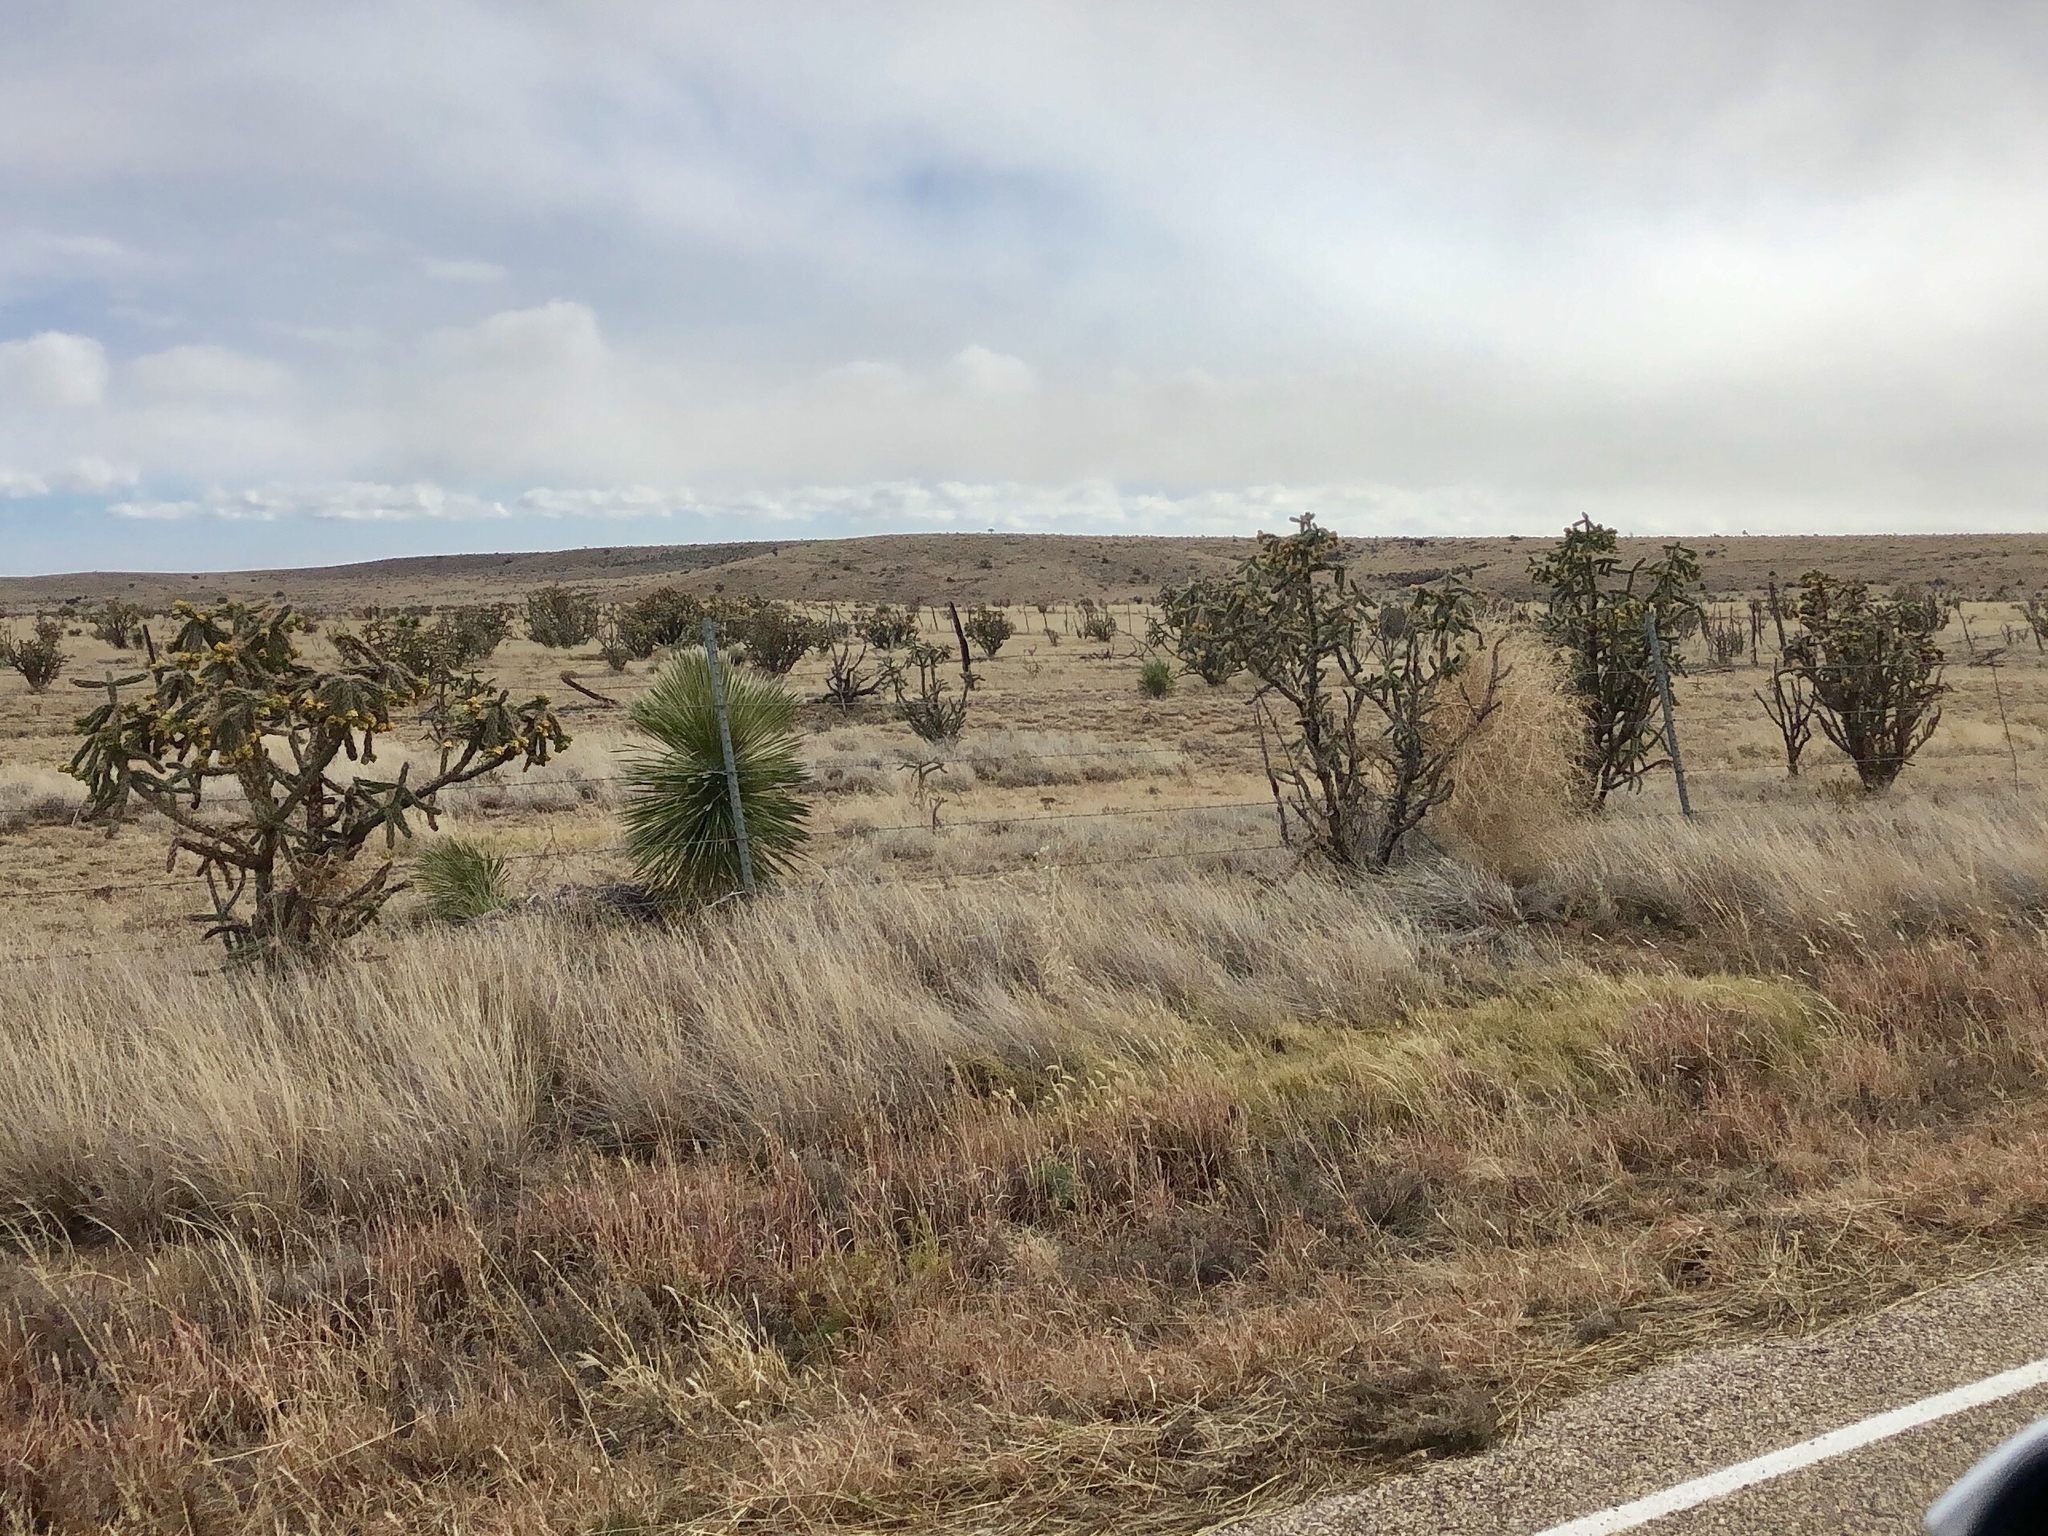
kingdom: Plantae
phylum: Tracheophyta
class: Magnoliopsida
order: Caryophyllales
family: Cactaceae
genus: Cylindropuntia
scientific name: Cylindropuntia imbricata
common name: Candelabrum cactus
